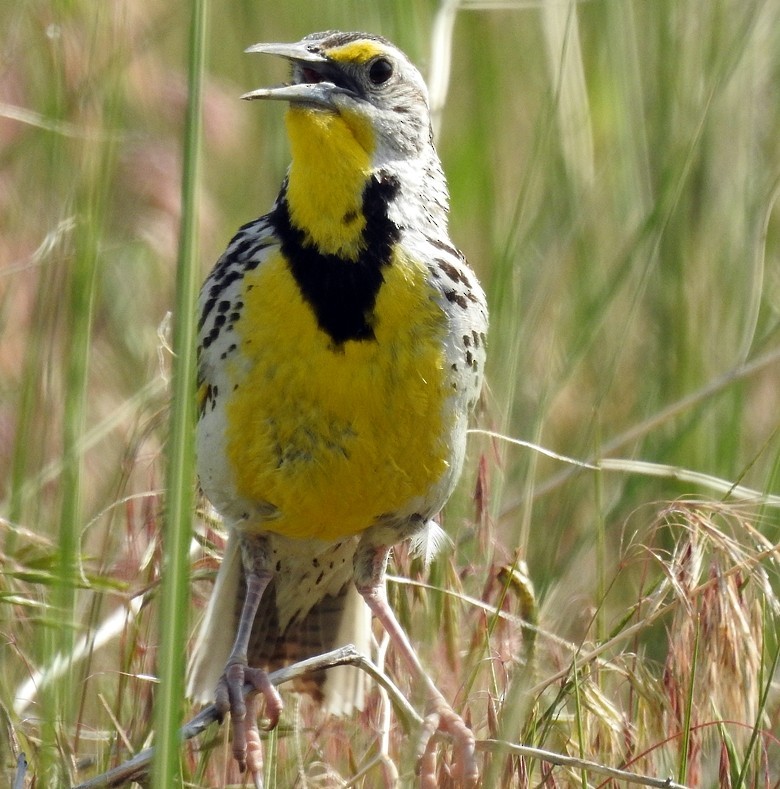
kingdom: Animalia
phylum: Chordata
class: Aves
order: Passeriformes
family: Icteridae
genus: Sturnella
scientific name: Sturnella neglecta
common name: Western meadowlark
